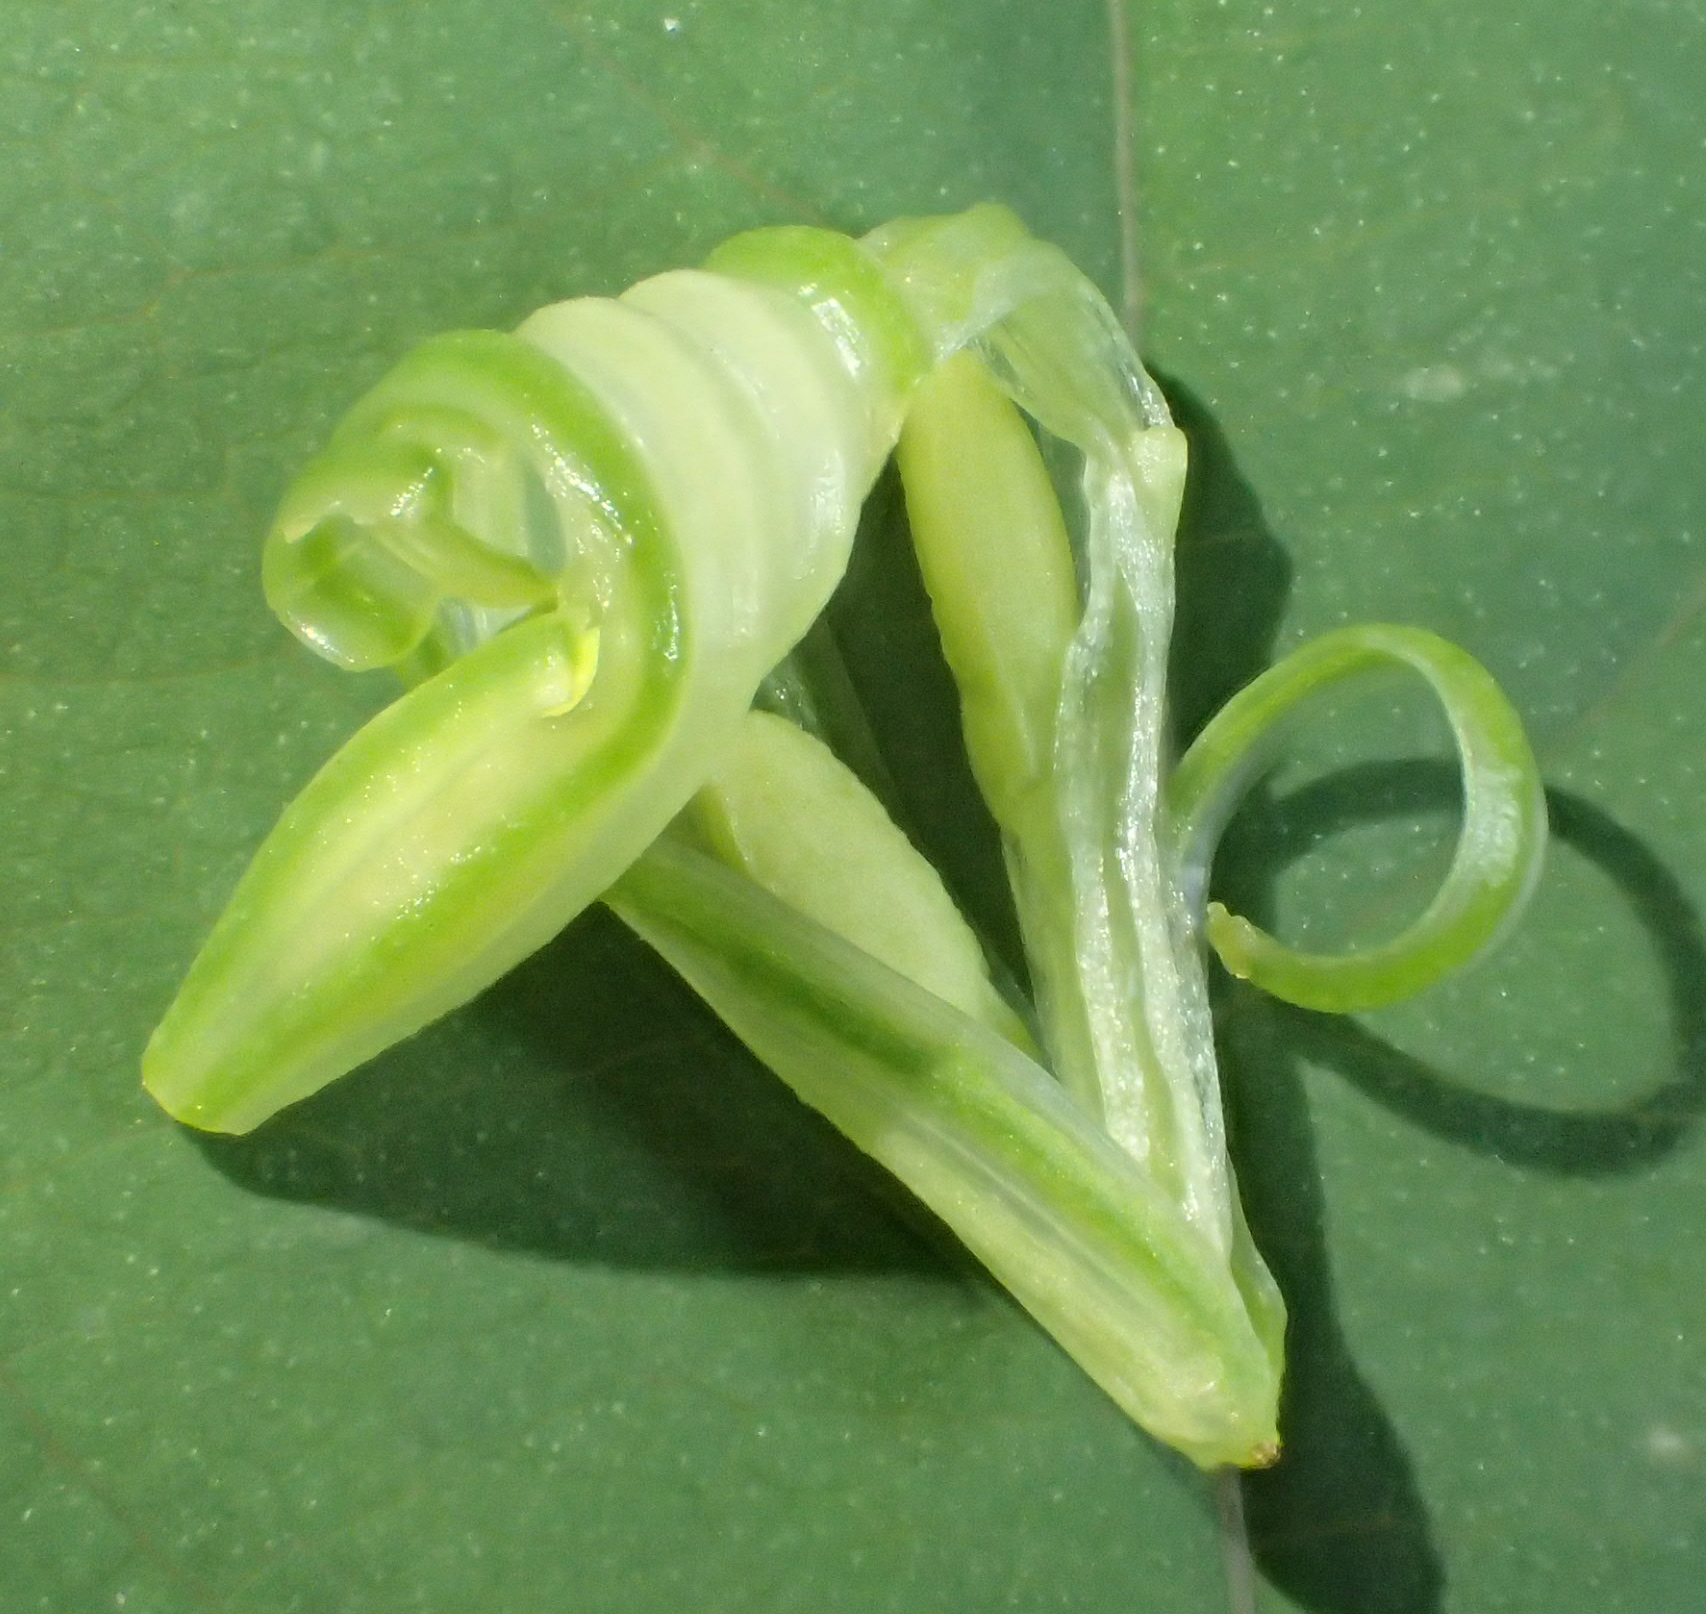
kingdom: Plantae
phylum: Tracheophyta
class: Magnoliopsida
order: Ericales
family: Balsaminaceae
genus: Impatiens
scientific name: Impatiens noli-tangere
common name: Touch-me-not balsam
